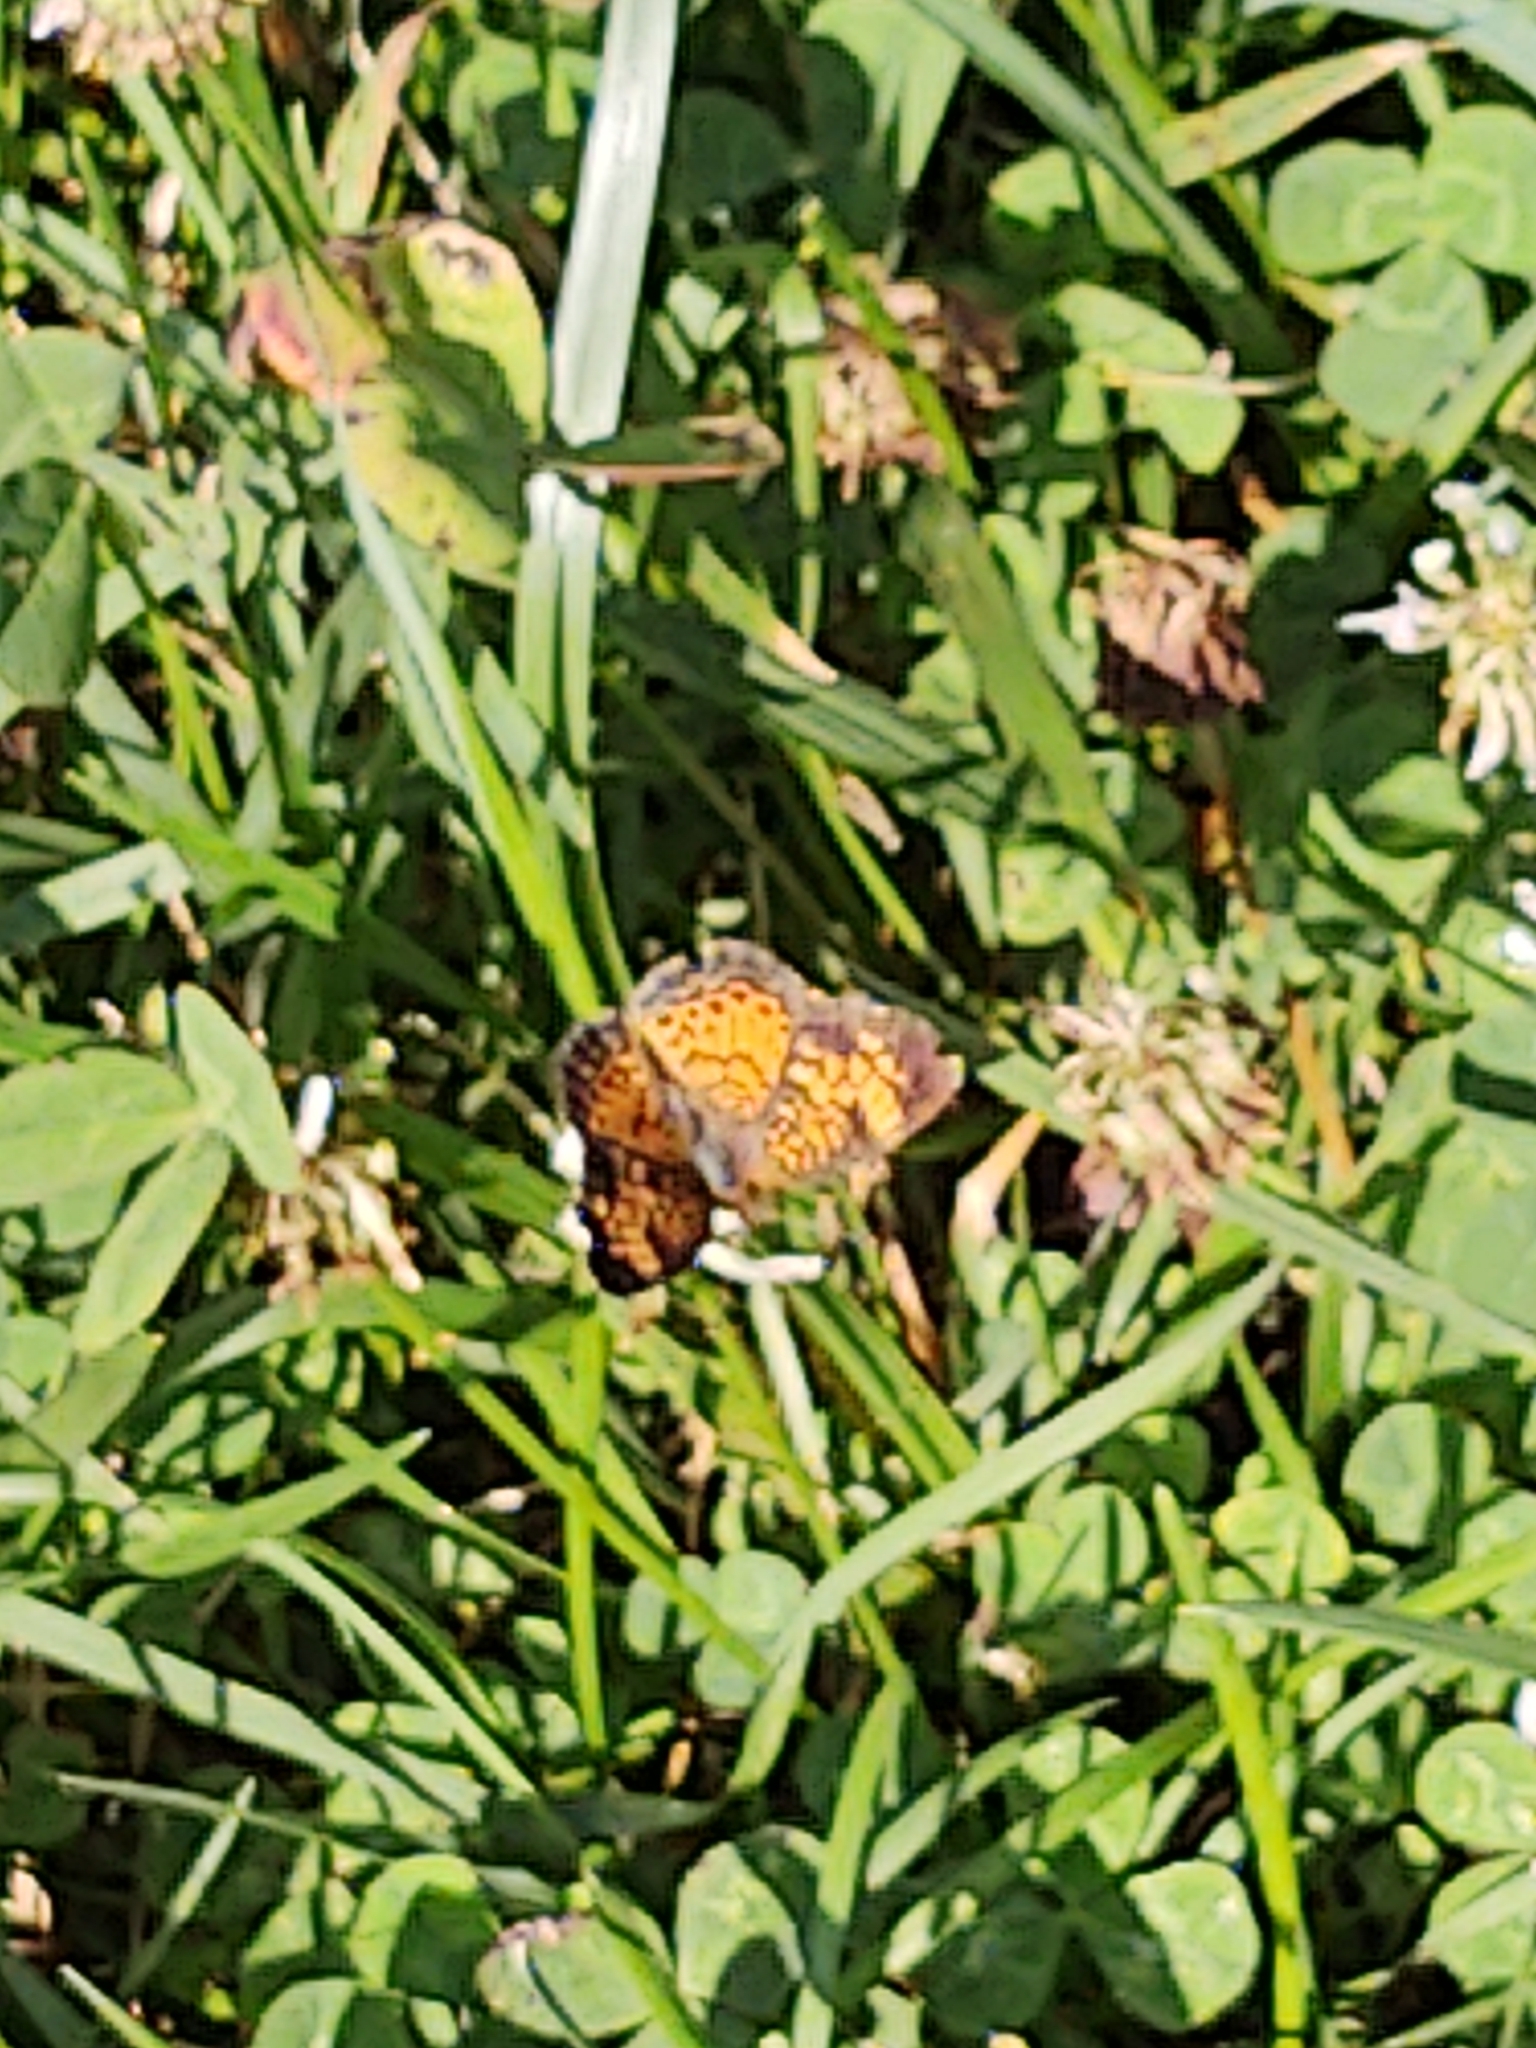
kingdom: Animalia
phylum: Arthropoda
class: Insecta
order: Lepidoptera
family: Nymphalidae
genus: Phyciodes
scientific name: Phyciodes tharos
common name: Pearl crescent
